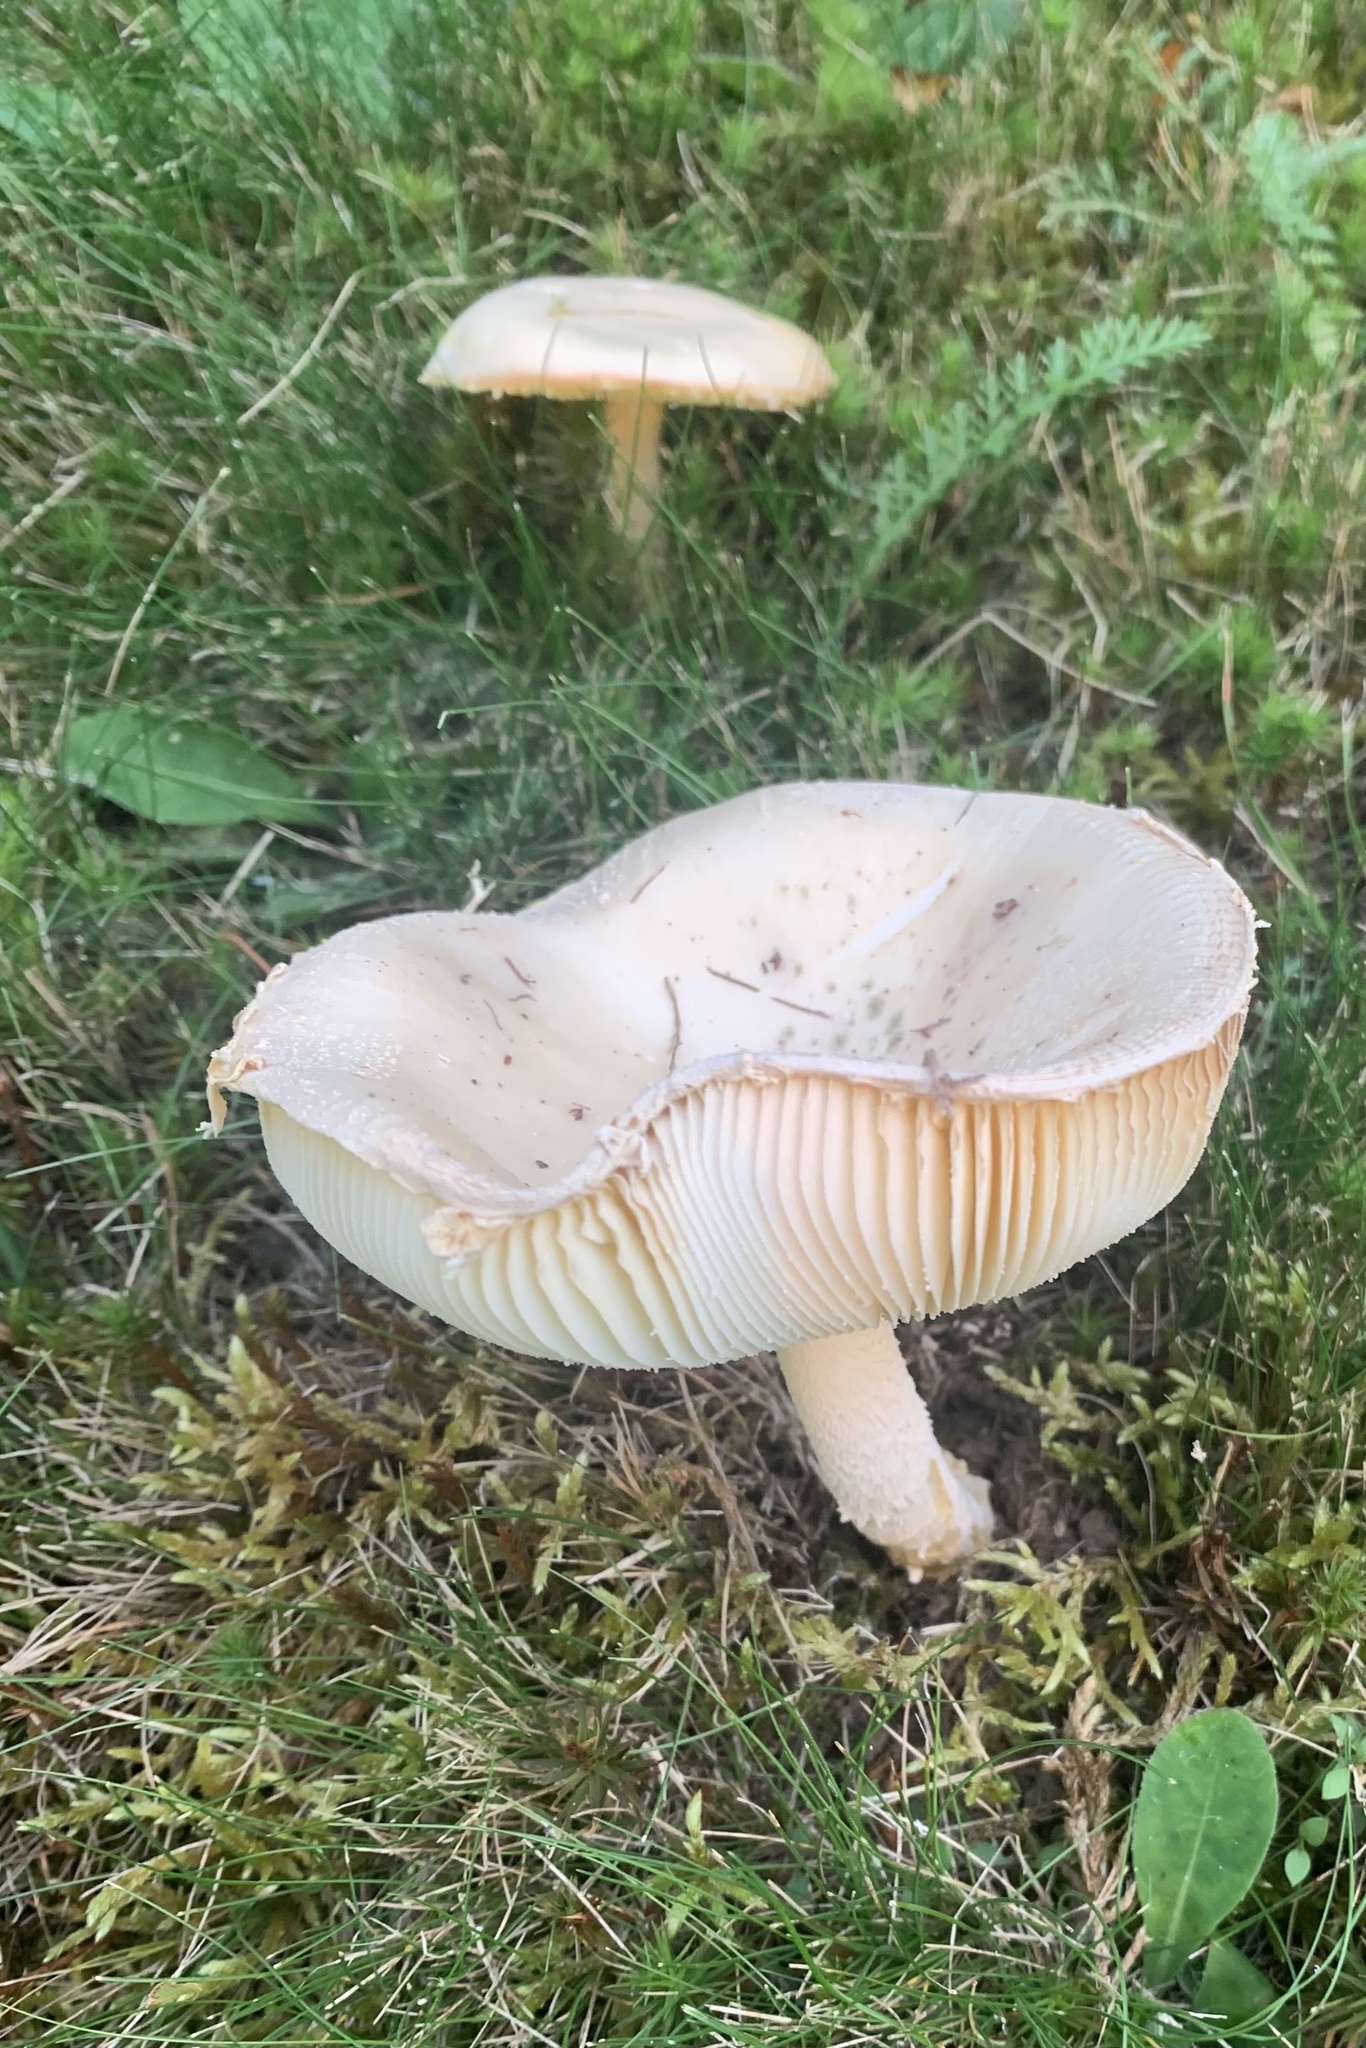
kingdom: Fungi
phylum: Basidiomycota
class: Agaricomycetes
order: Agaricales
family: Amanitaceae
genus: Amanita
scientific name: Amanita wellsii
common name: Salmon amanita
